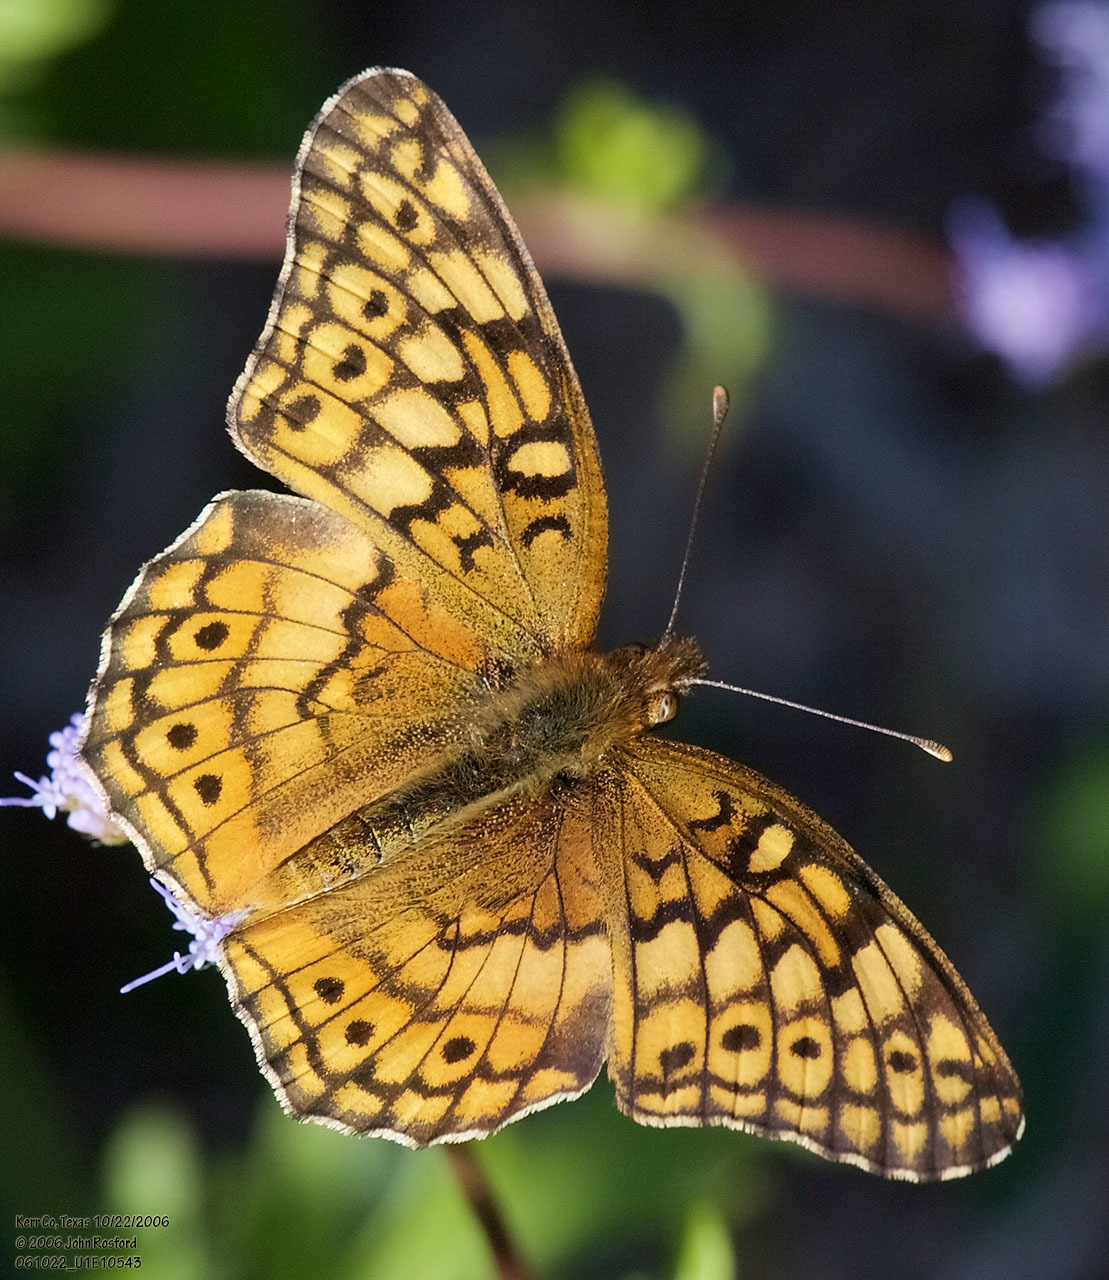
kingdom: Animalia
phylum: Arthropoda
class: Insecta
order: Lepidoptera
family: Nymphalidae
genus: Euptoieta
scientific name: Euptoieta claudia
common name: Variegated fritillary
